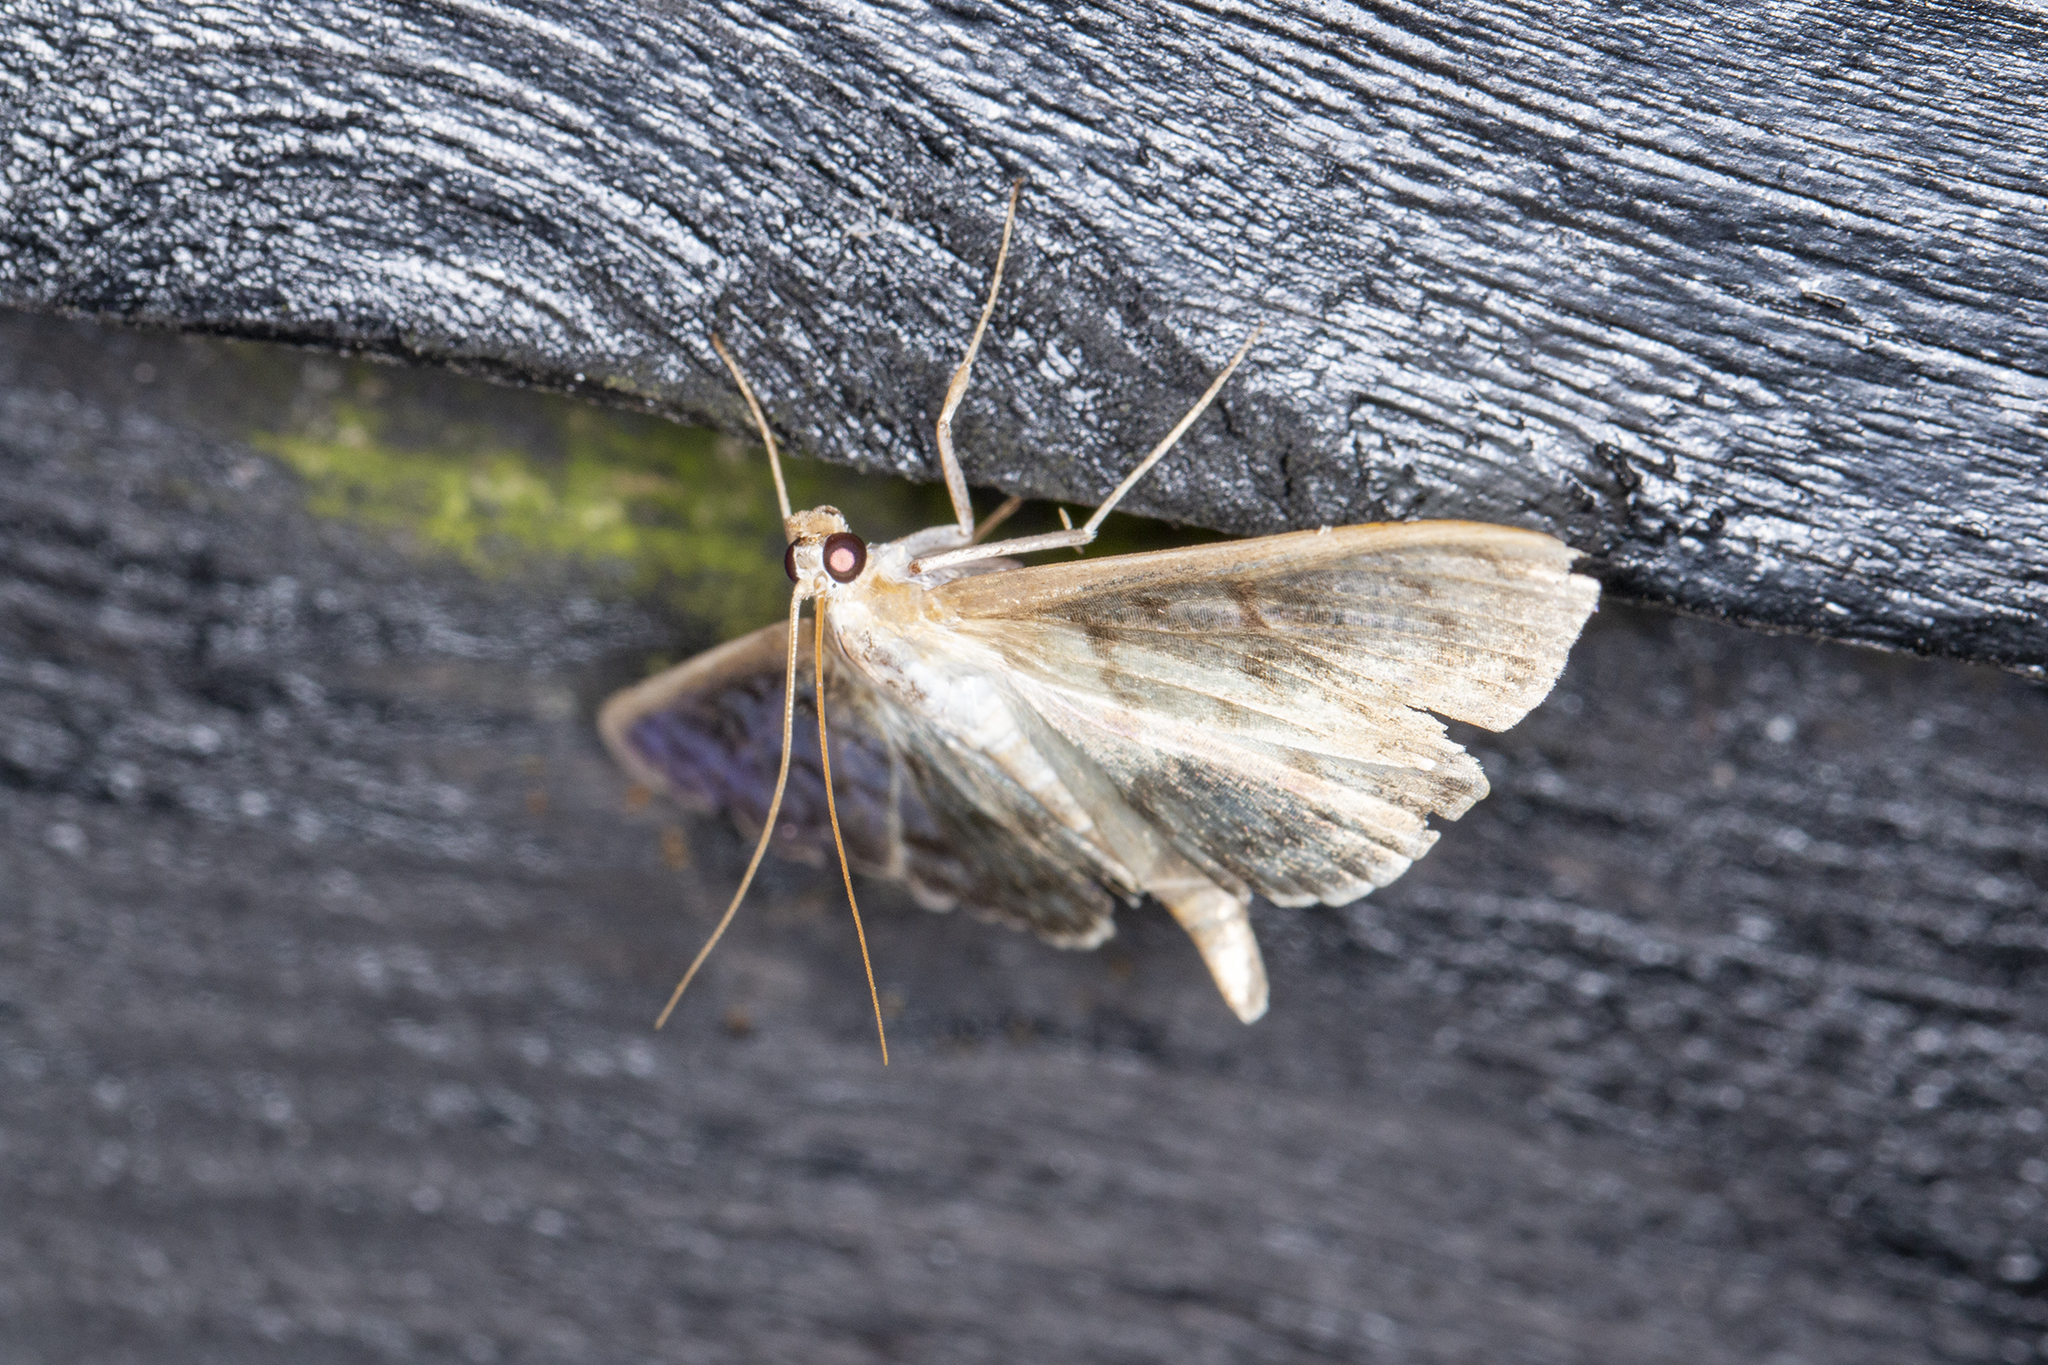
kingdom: Animalia
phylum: Arthropoda
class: Insecta
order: Lepidoptera
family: Crambidae
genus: Patania
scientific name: Patania ruralis
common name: Mother of pearl
